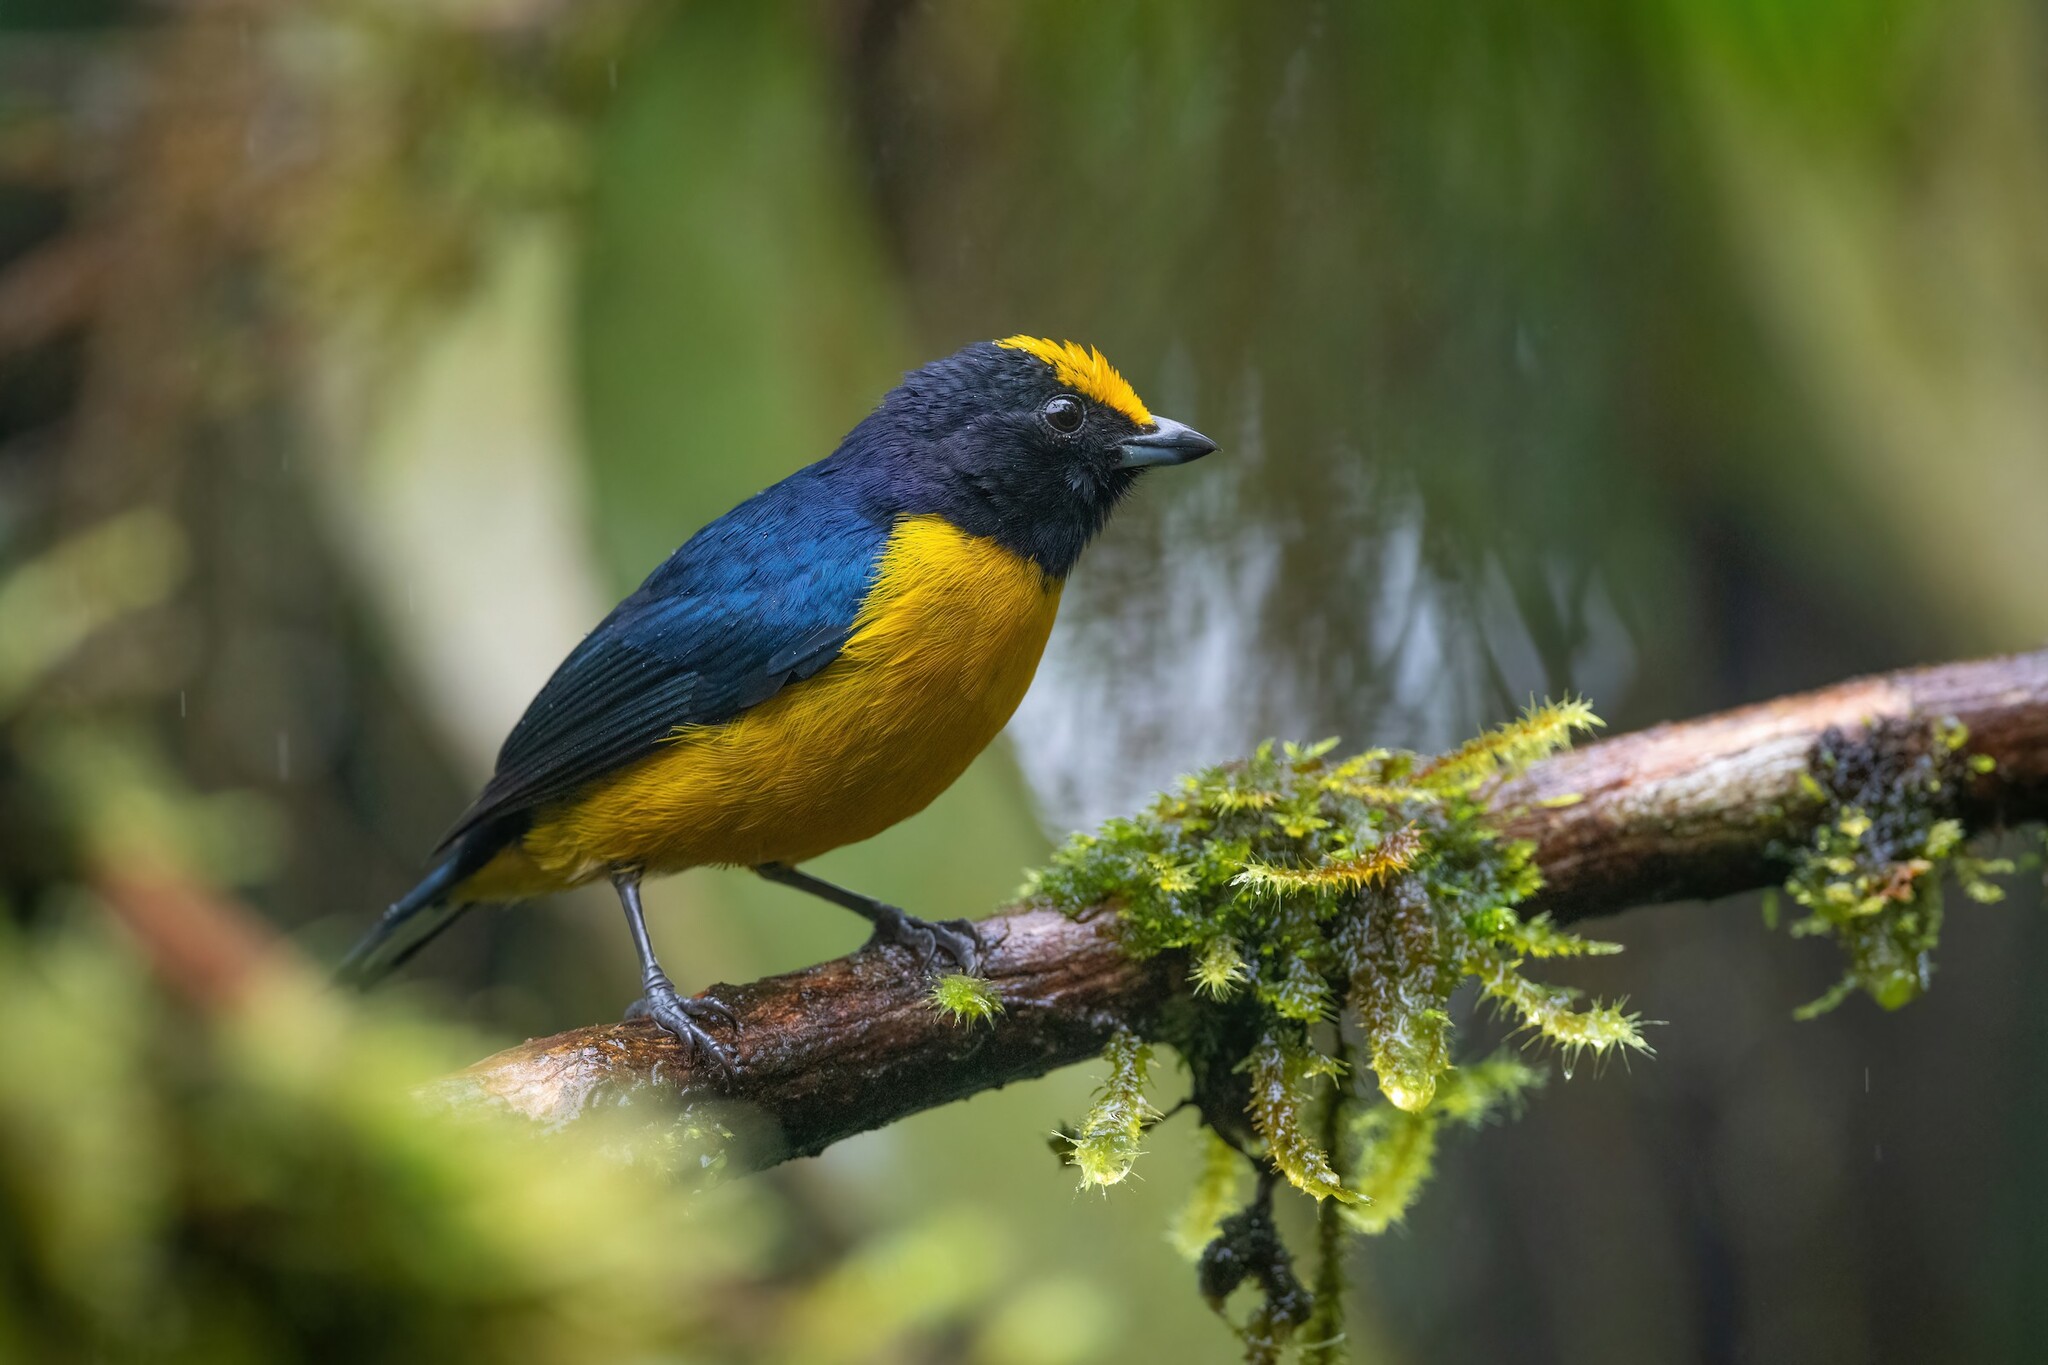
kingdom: Animalia
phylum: Chordata
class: Aves
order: Passeriformes
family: Fringillidae
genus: Euphonia
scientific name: Euphonia xanthogaster
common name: Orange-bellied euphonia
